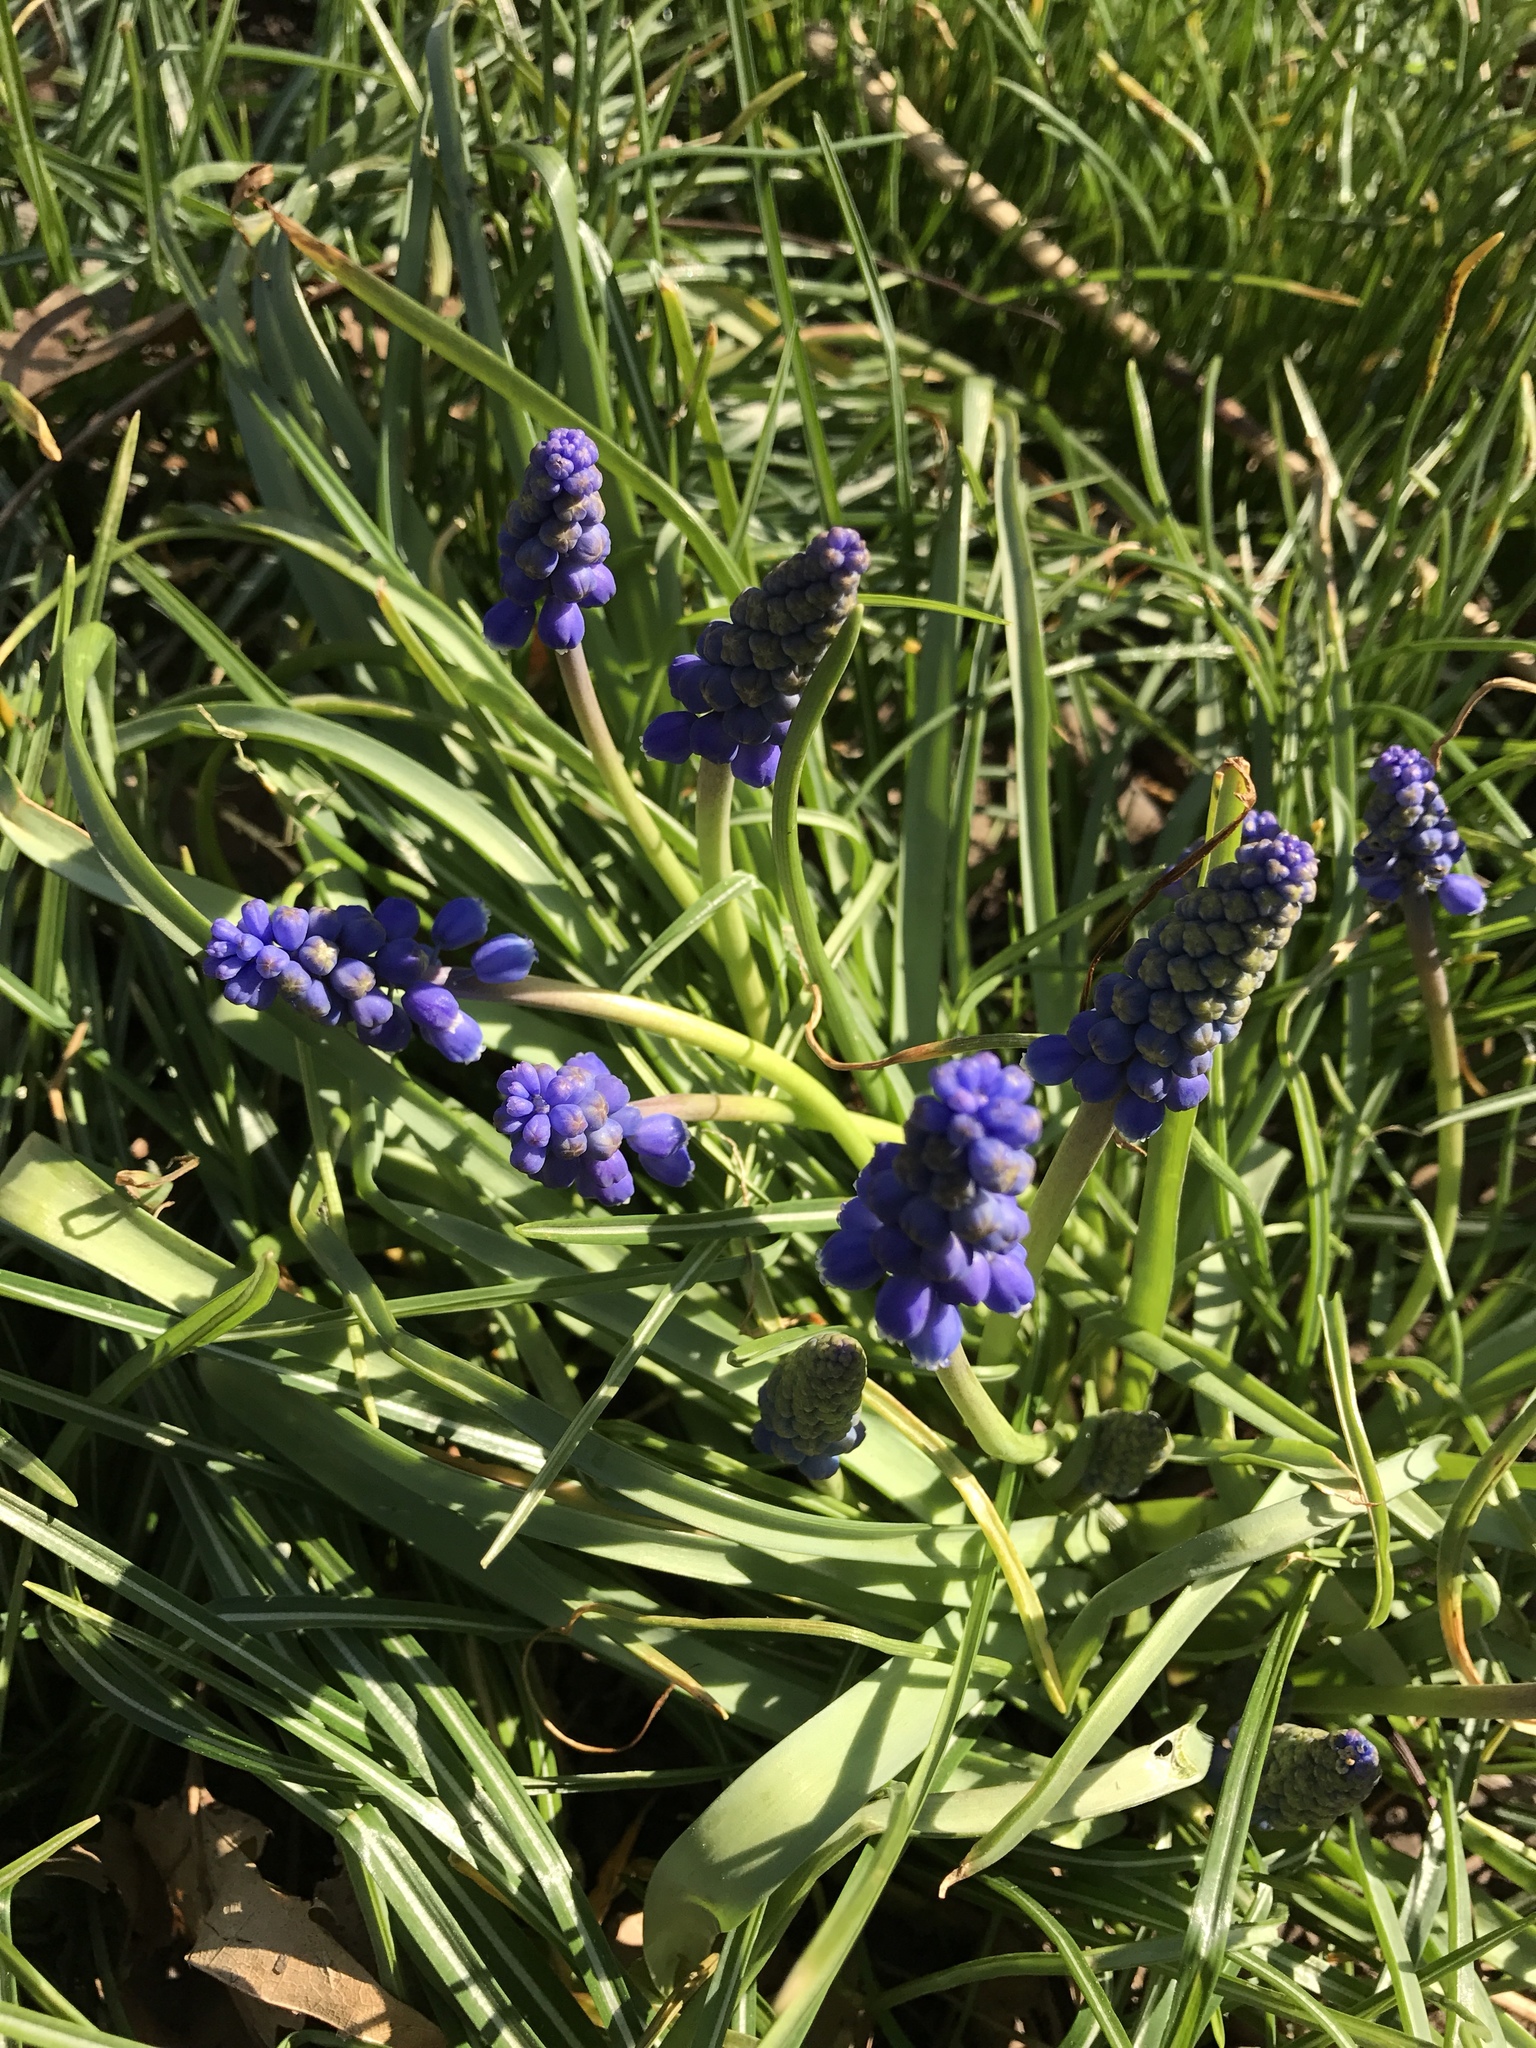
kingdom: Plantae
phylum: Tracheophyta
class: Liliopsida
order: Asparagales
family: Asparagaceae
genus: Muscari
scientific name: Muscari neglectum
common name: Grape-hyacinth
